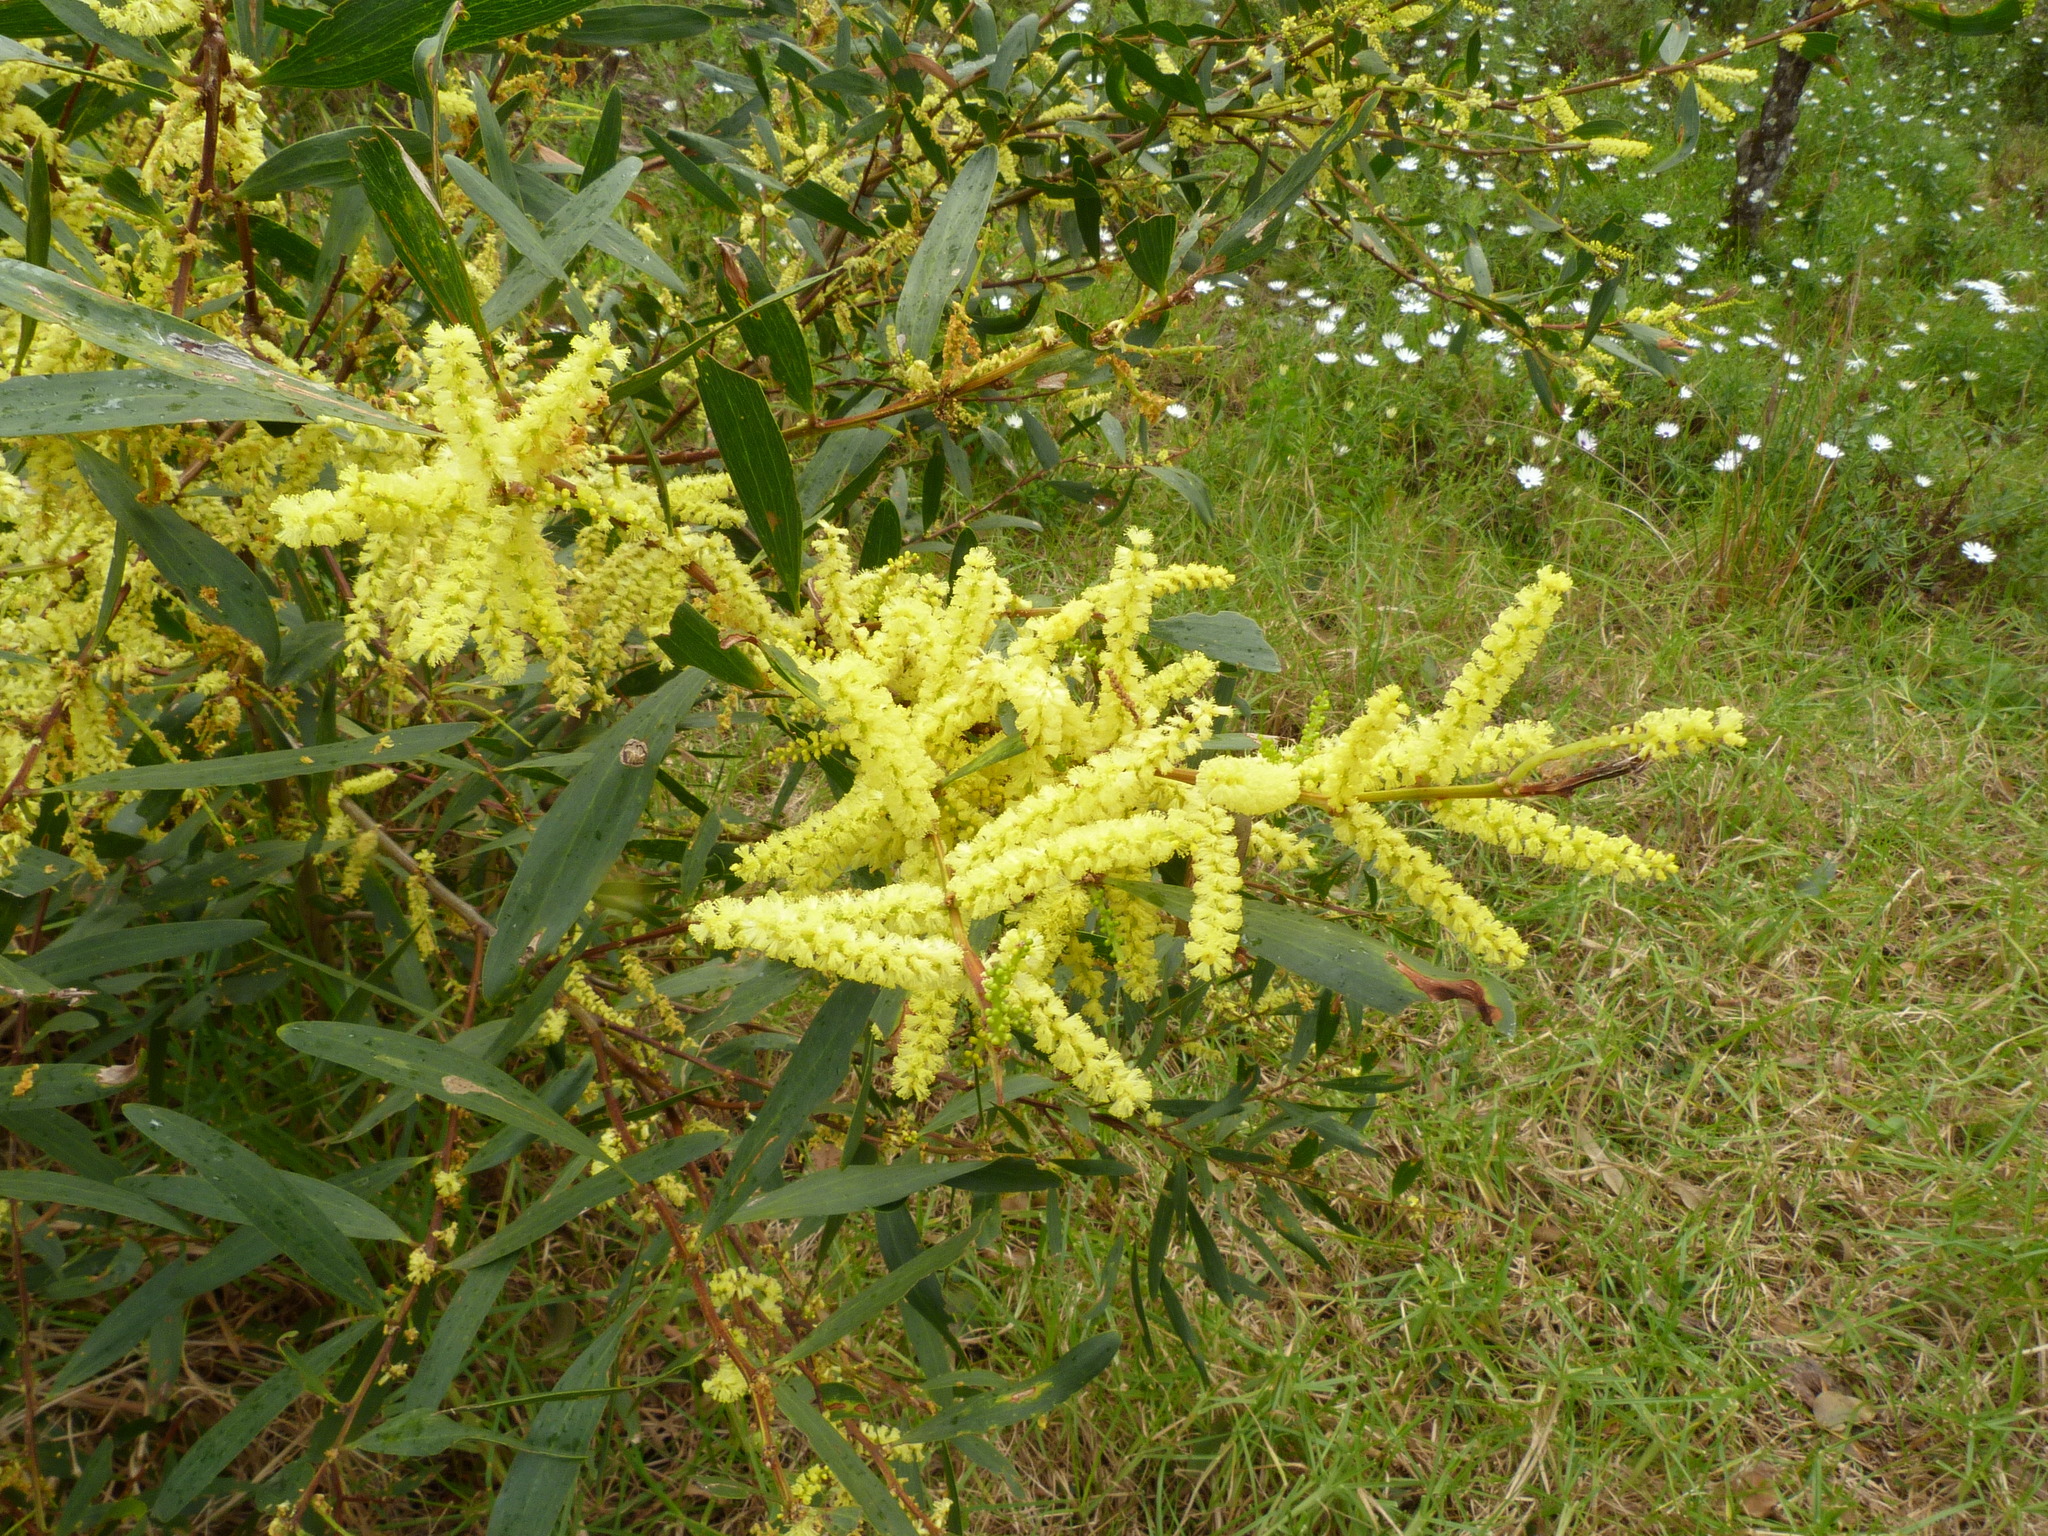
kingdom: Plantae
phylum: Tracheophyta
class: Magnoliopsida
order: Fabales
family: Fabaceae
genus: Acacia
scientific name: Acacia longifolia
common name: Sydney golden wattle
